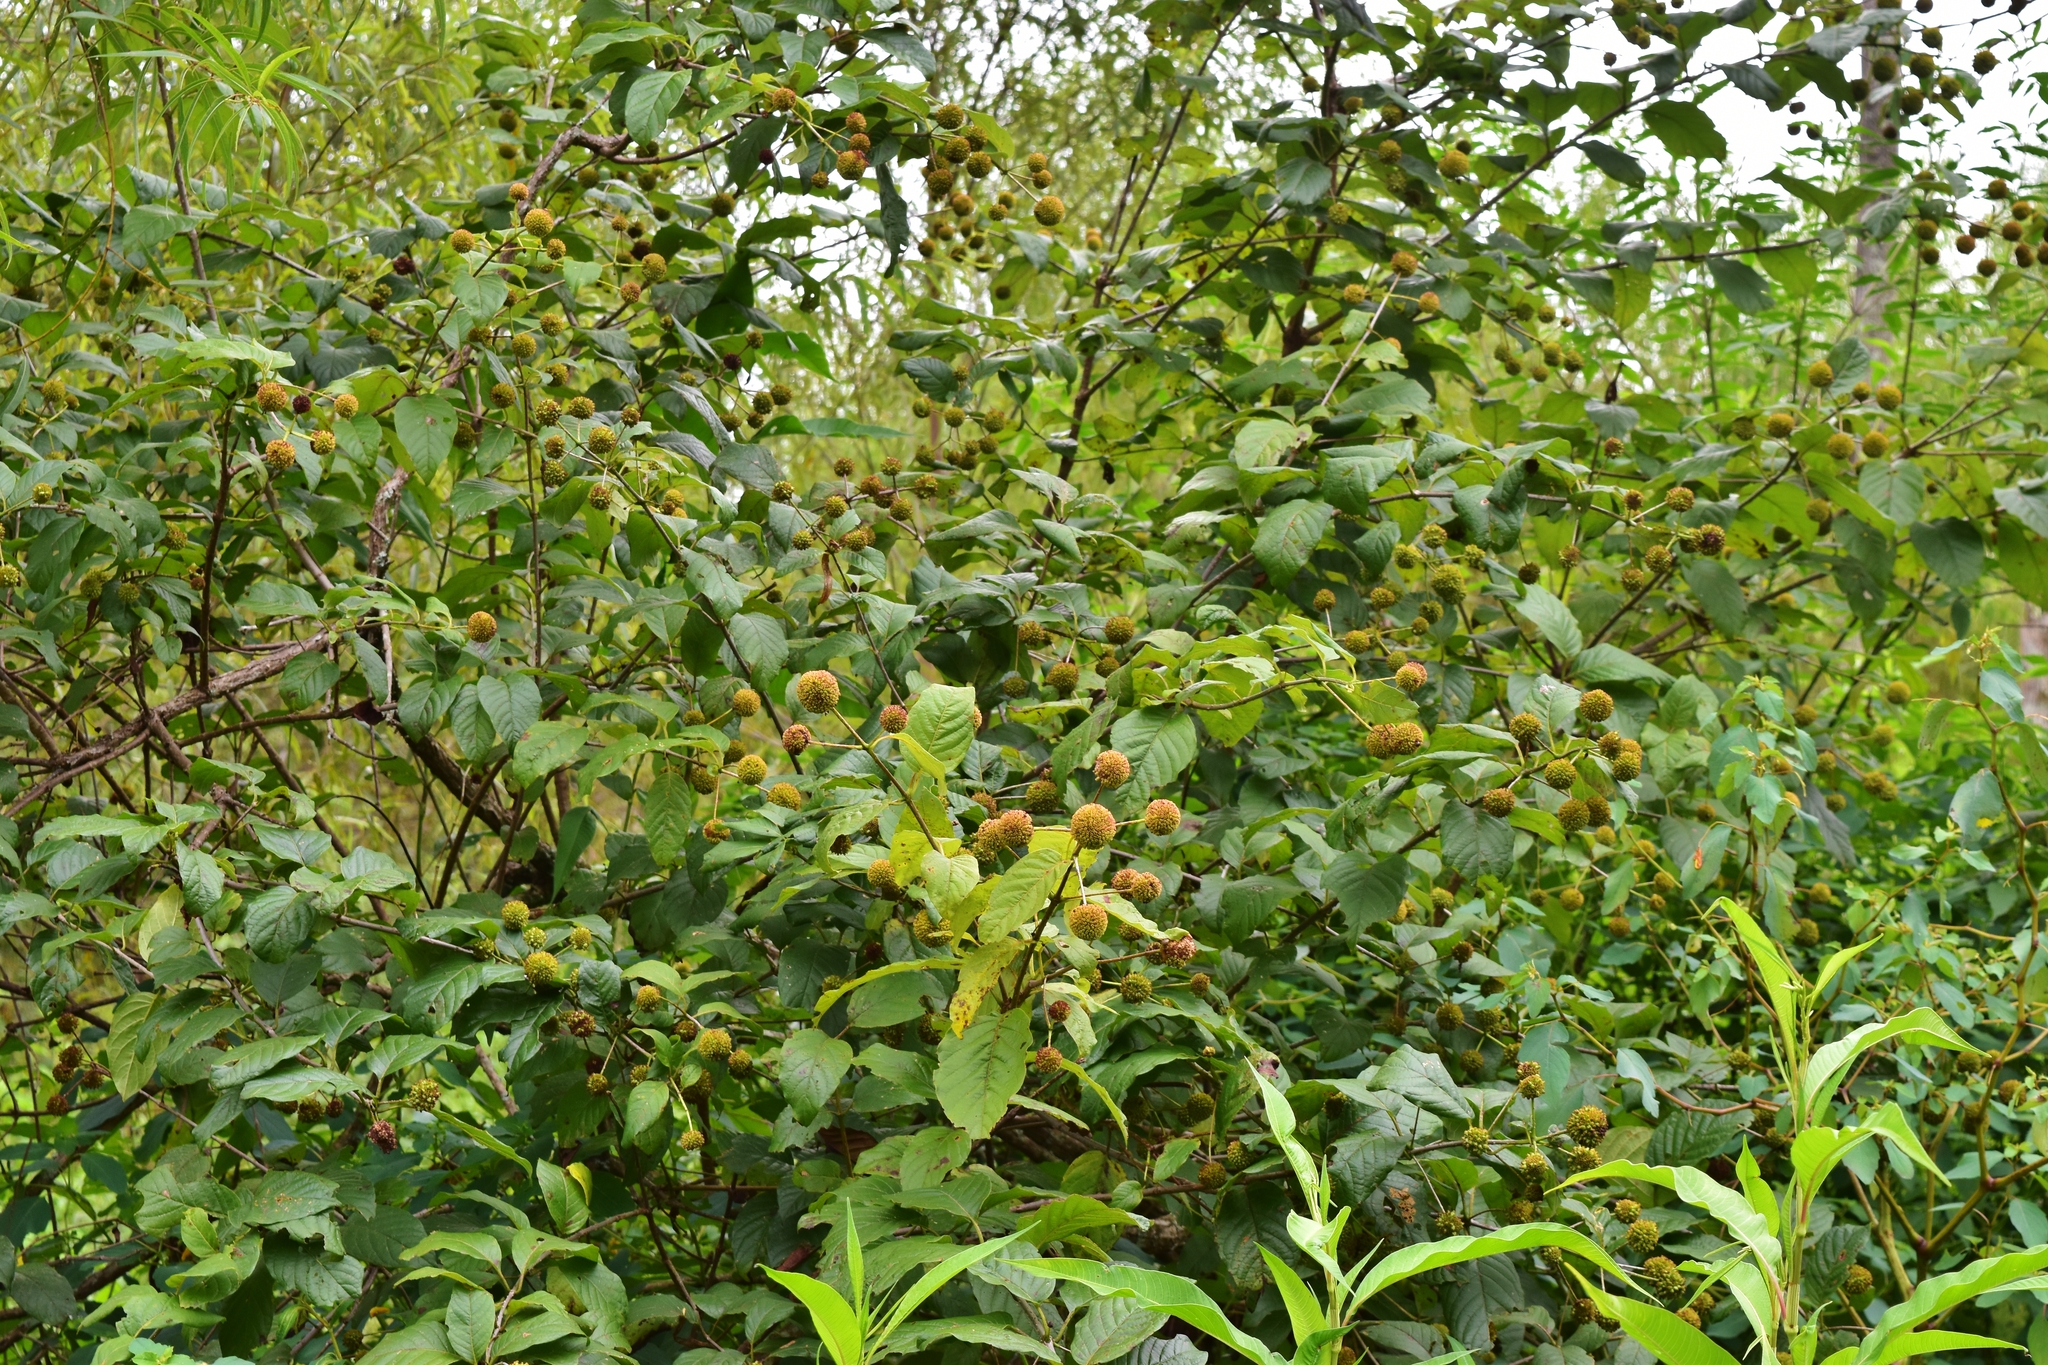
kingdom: Plantae
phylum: Tracheophyta
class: Magnoliopsida
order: Gentianales
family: Rubiaceae
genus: Cephalanthus
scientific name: Cephalanthus occidentalis
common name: Button-willow
